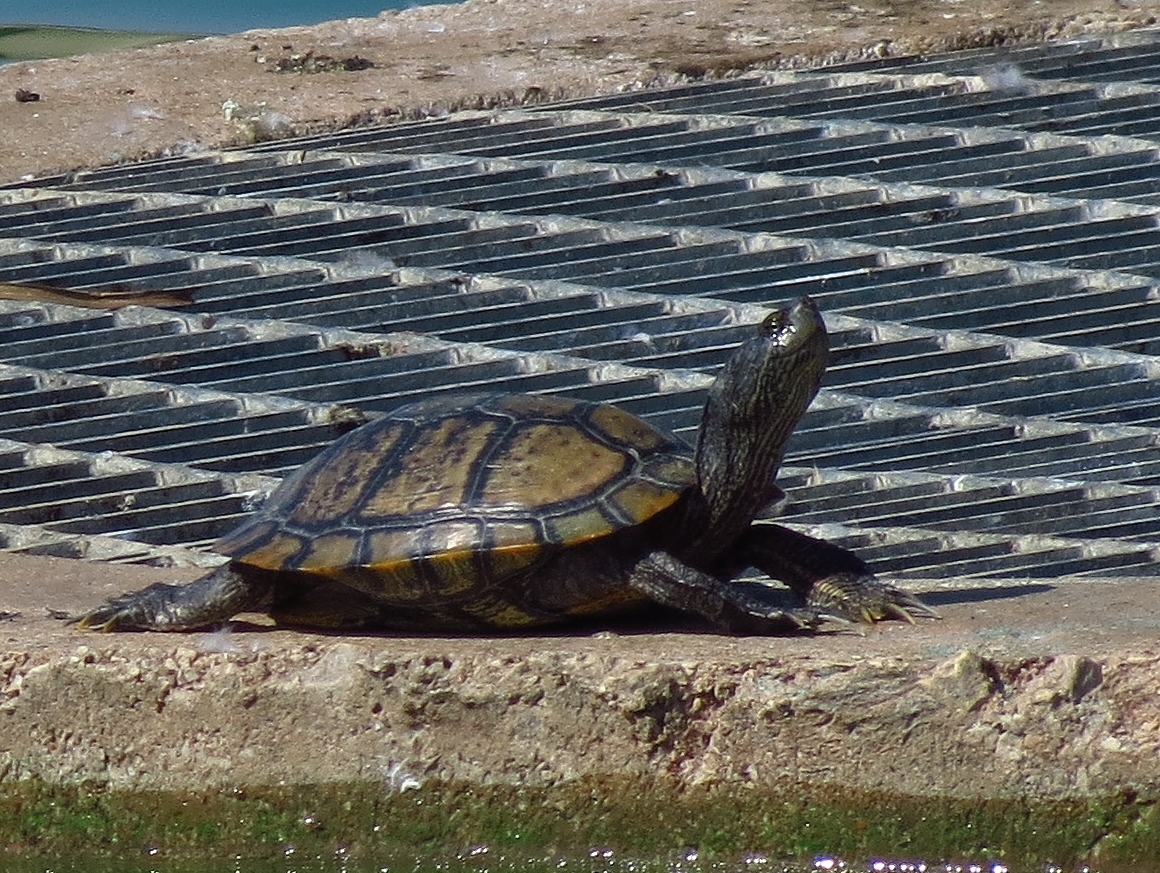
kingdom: Animalia
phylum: Chordata
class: Testudines
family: Emydidae
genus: Trachemys
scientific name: Trachemys scripta
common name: Slider
